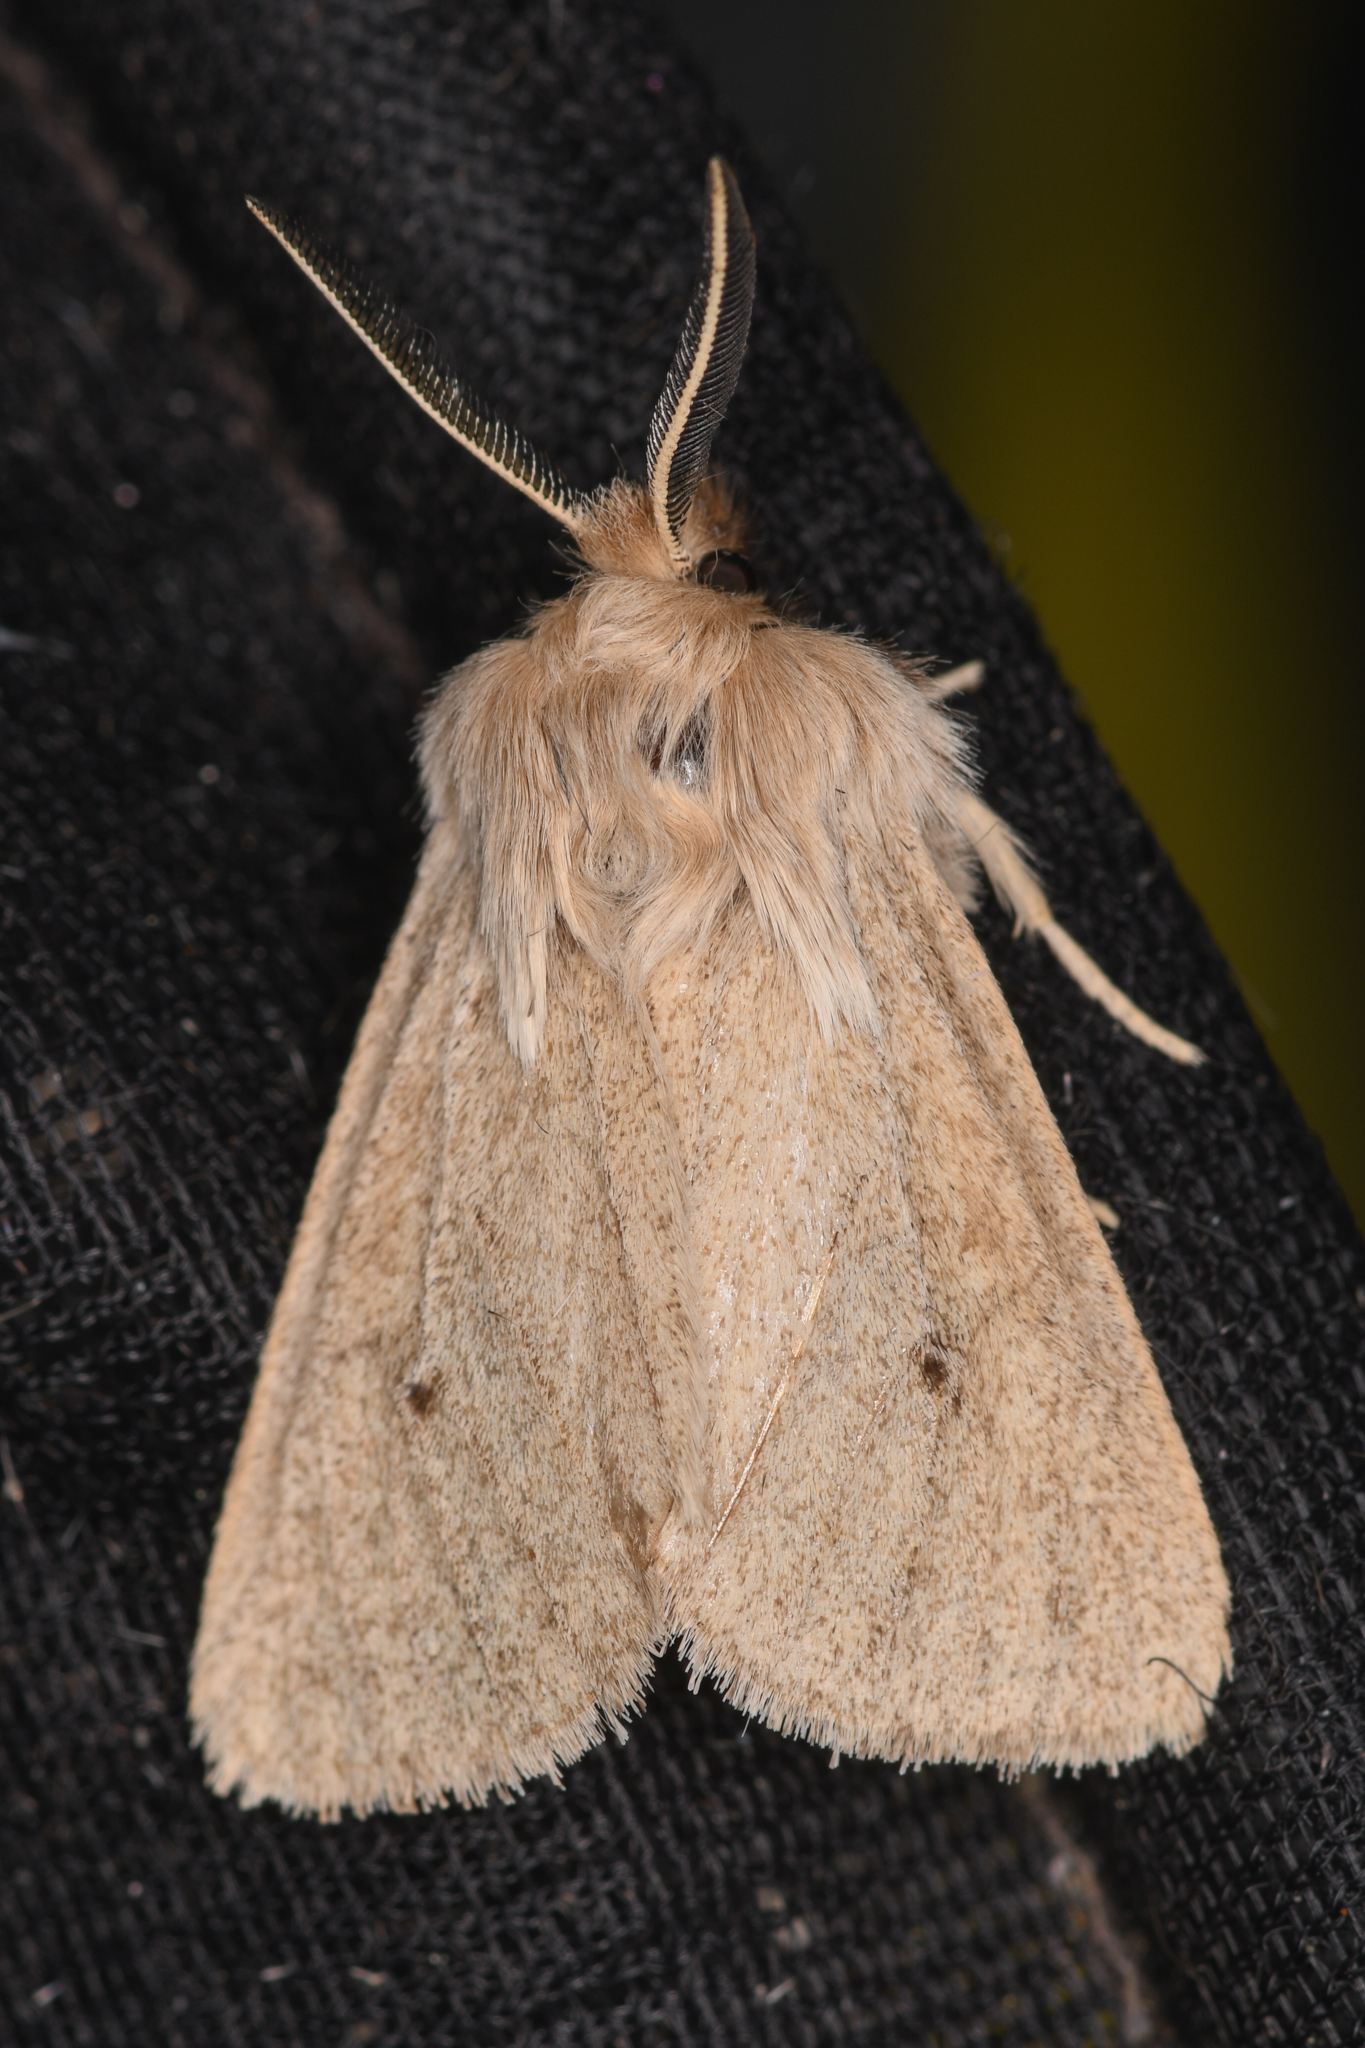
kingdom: Animalia
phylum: Arthropoda
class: Insecta
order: Lepidoptera
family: Erebidae
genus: Spilosoma
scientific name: Spilosoma vagans
